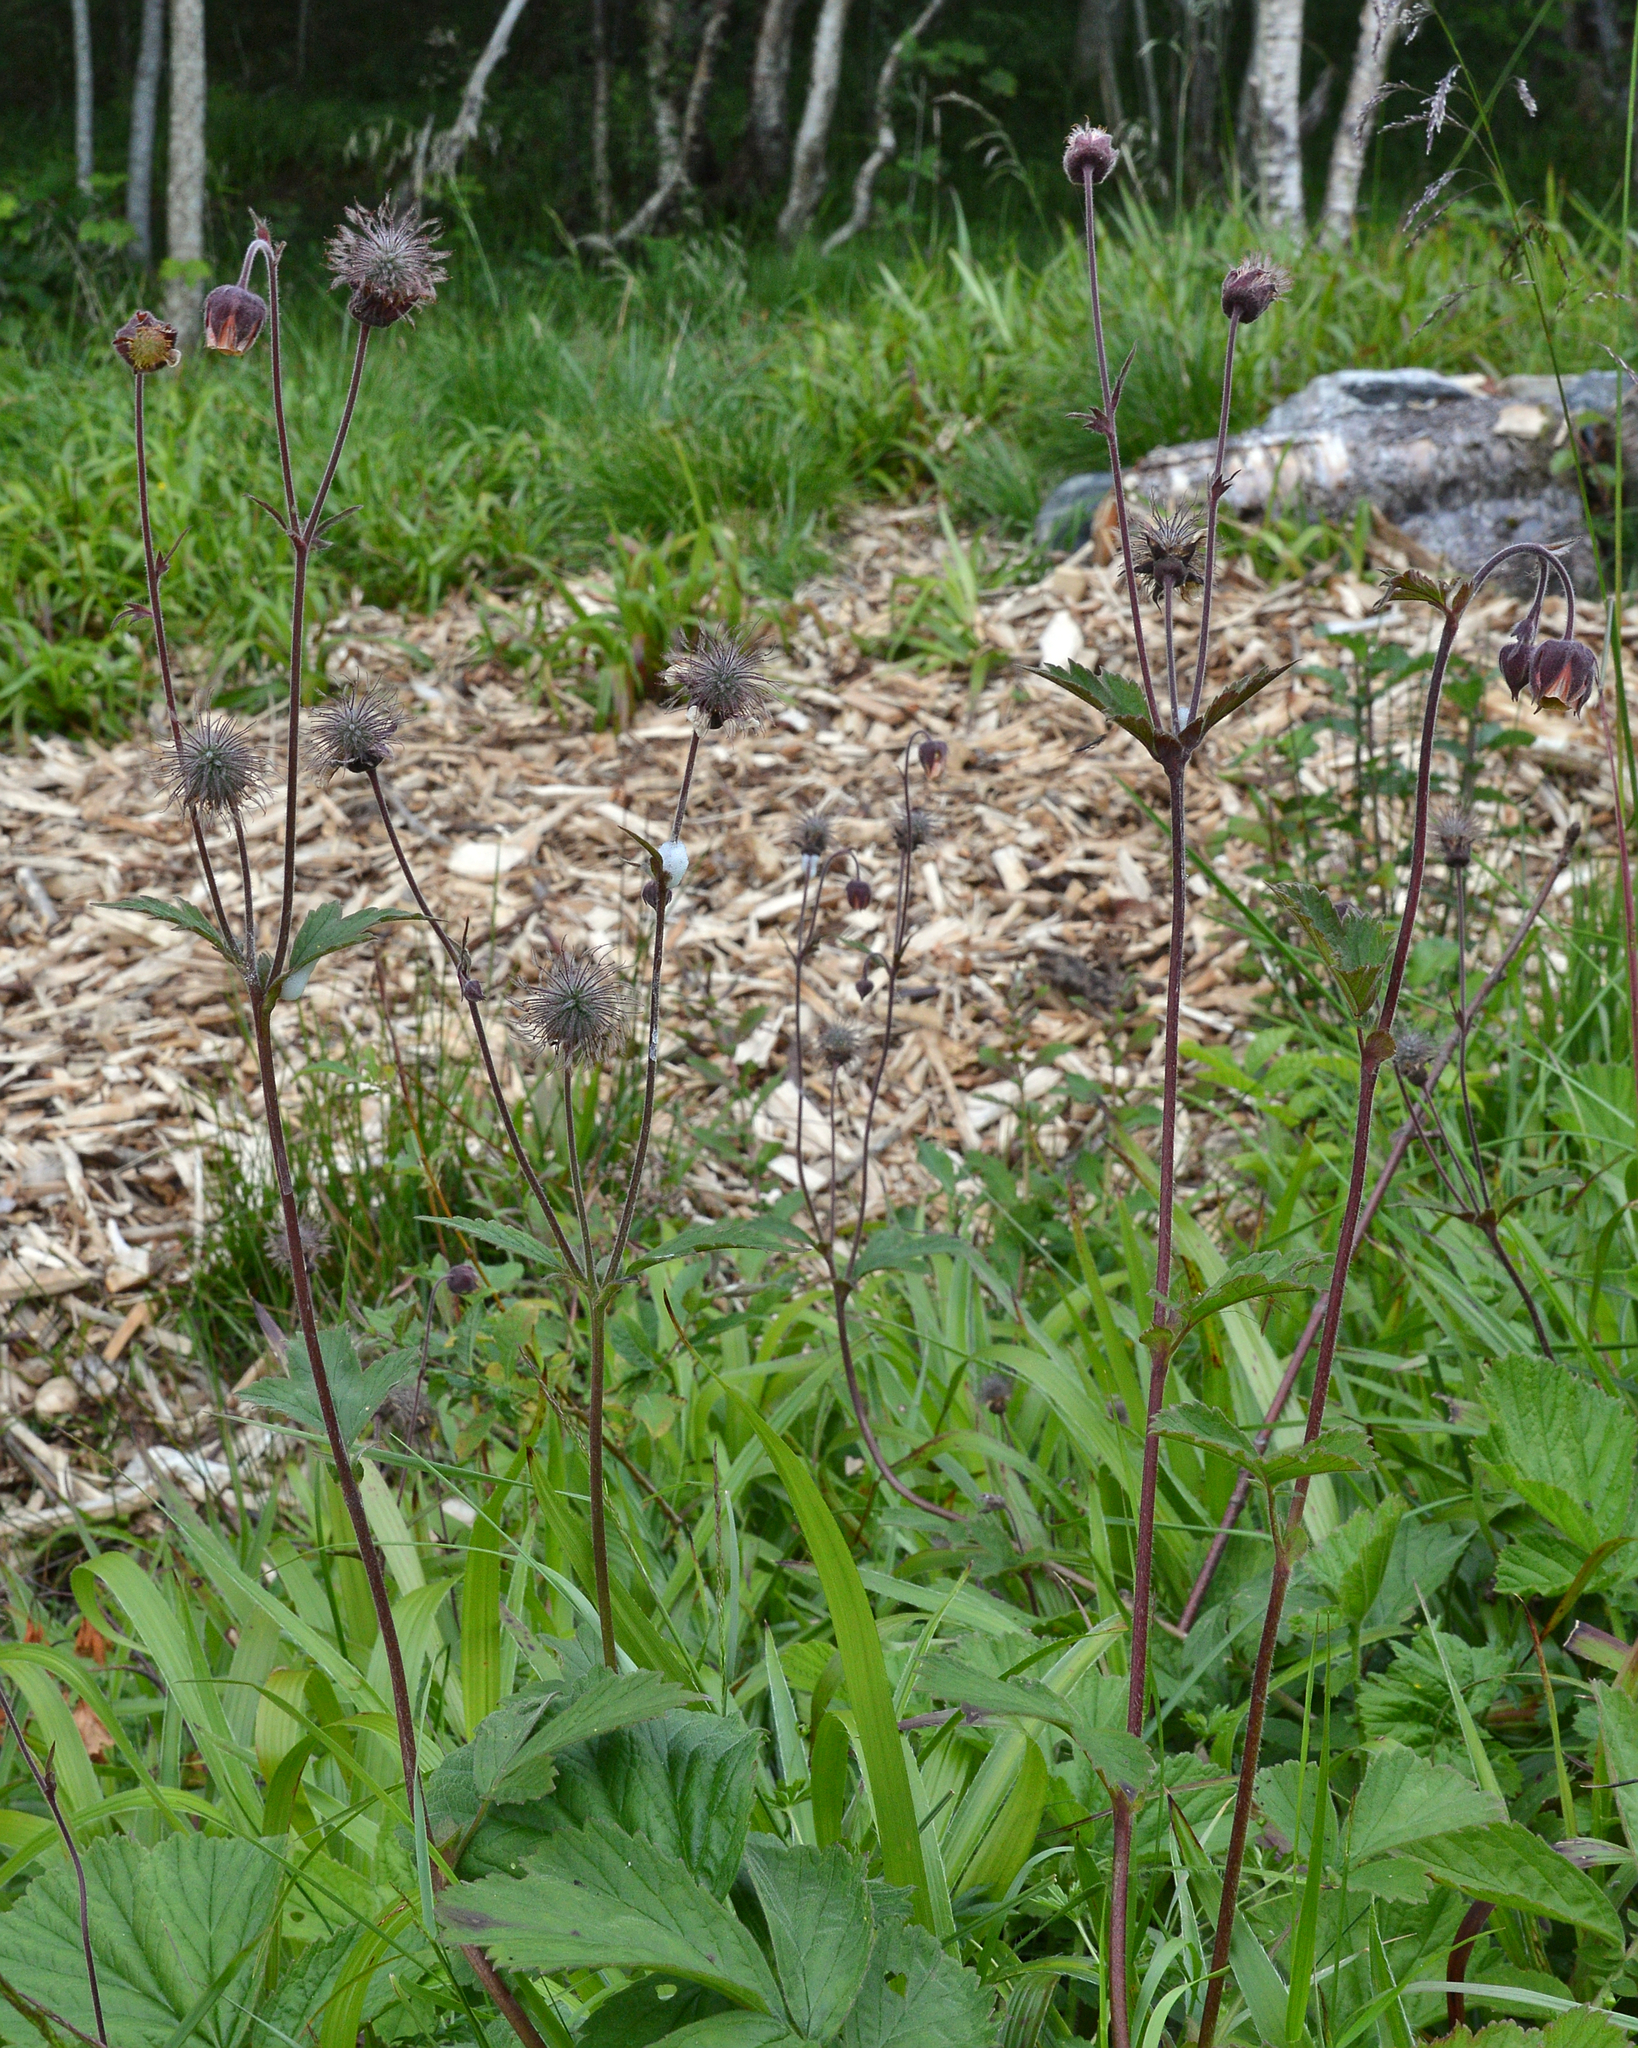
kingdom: Plantae
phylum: Tracheophyta
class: Magnoliopsida
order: Rosales
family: Rosaceae
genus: Geum
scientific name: Geum rivale
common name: Water avens
